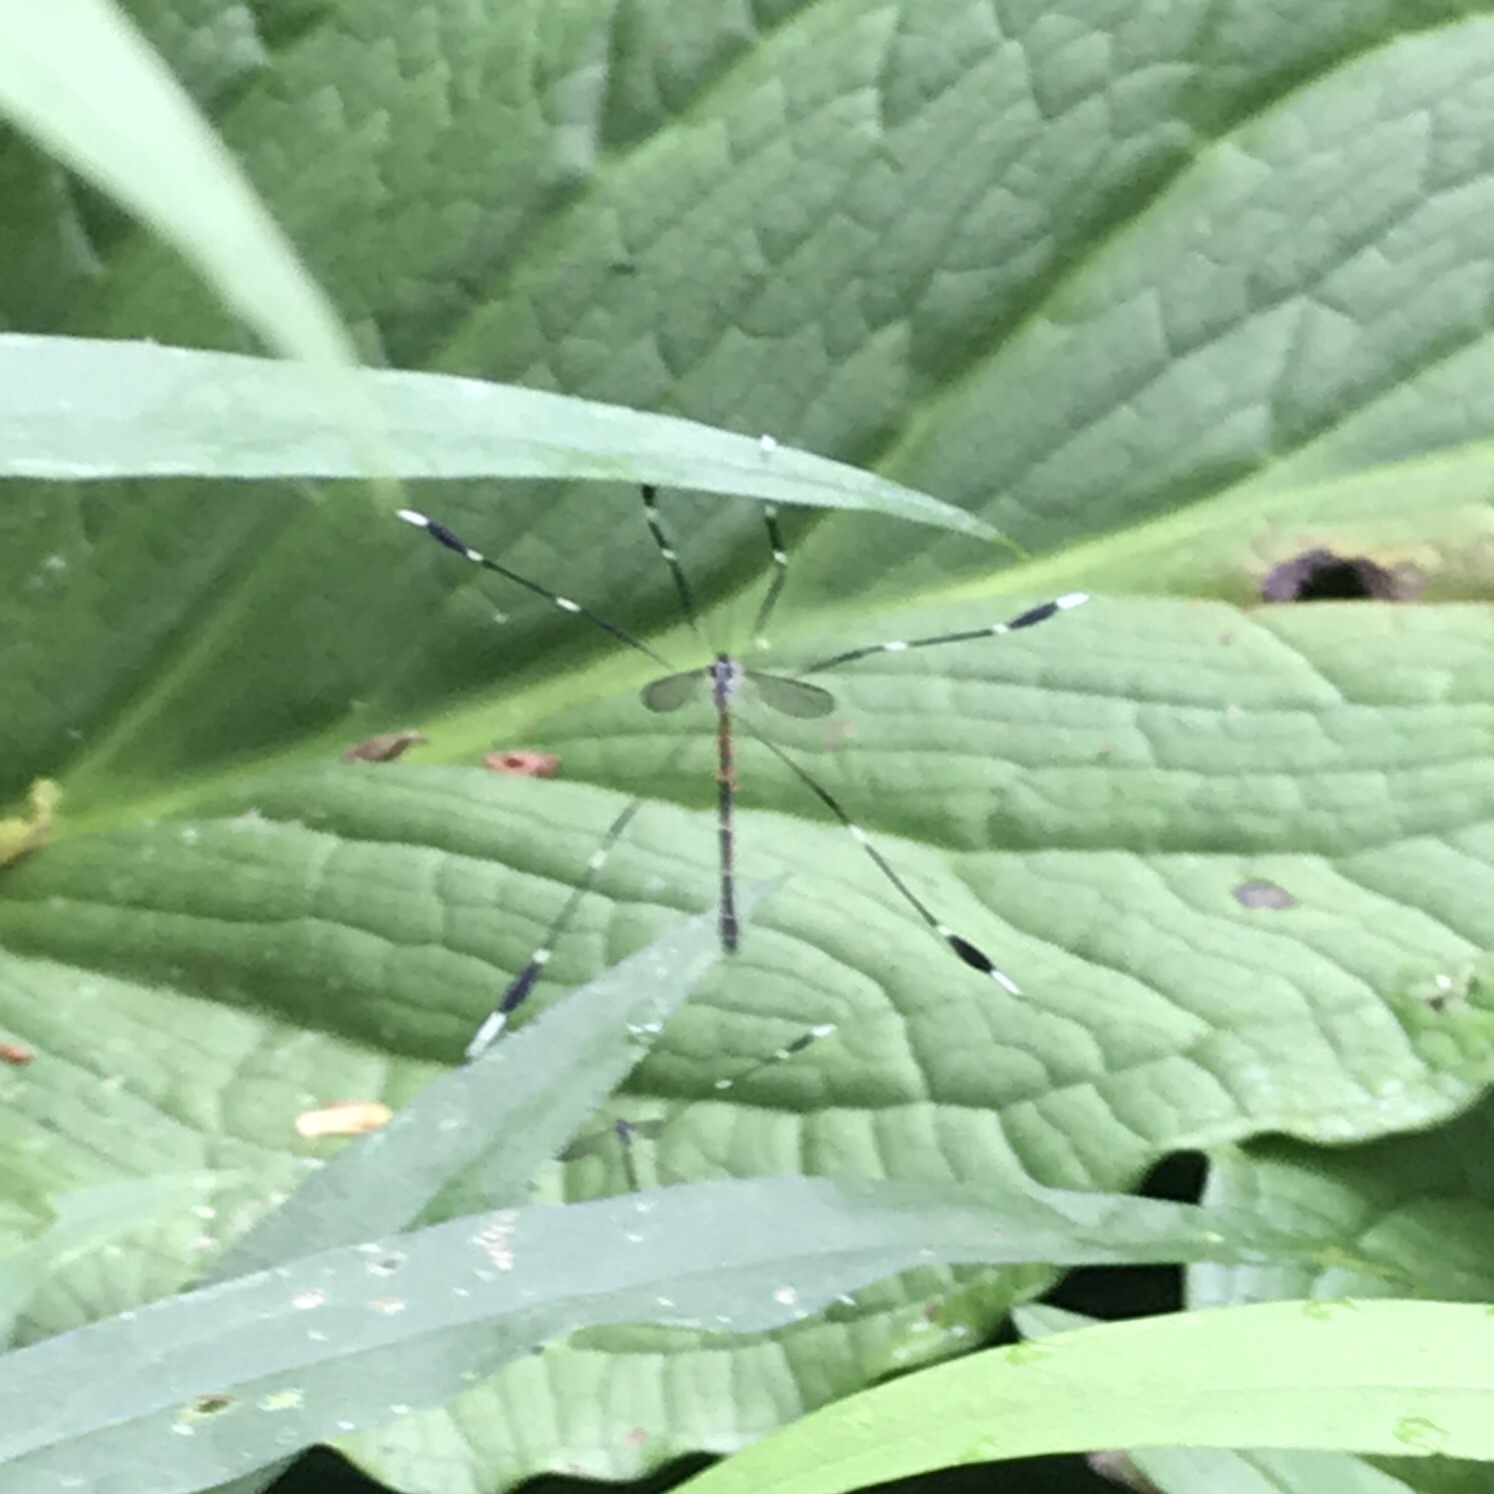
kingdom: Animalia
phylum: Arthropoda
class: Insecta
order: Diptera
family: Ptychopteridae
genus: Bittacomorpha
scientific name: Bittacomorpha clavipes
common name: Eastern phantom crane fly
